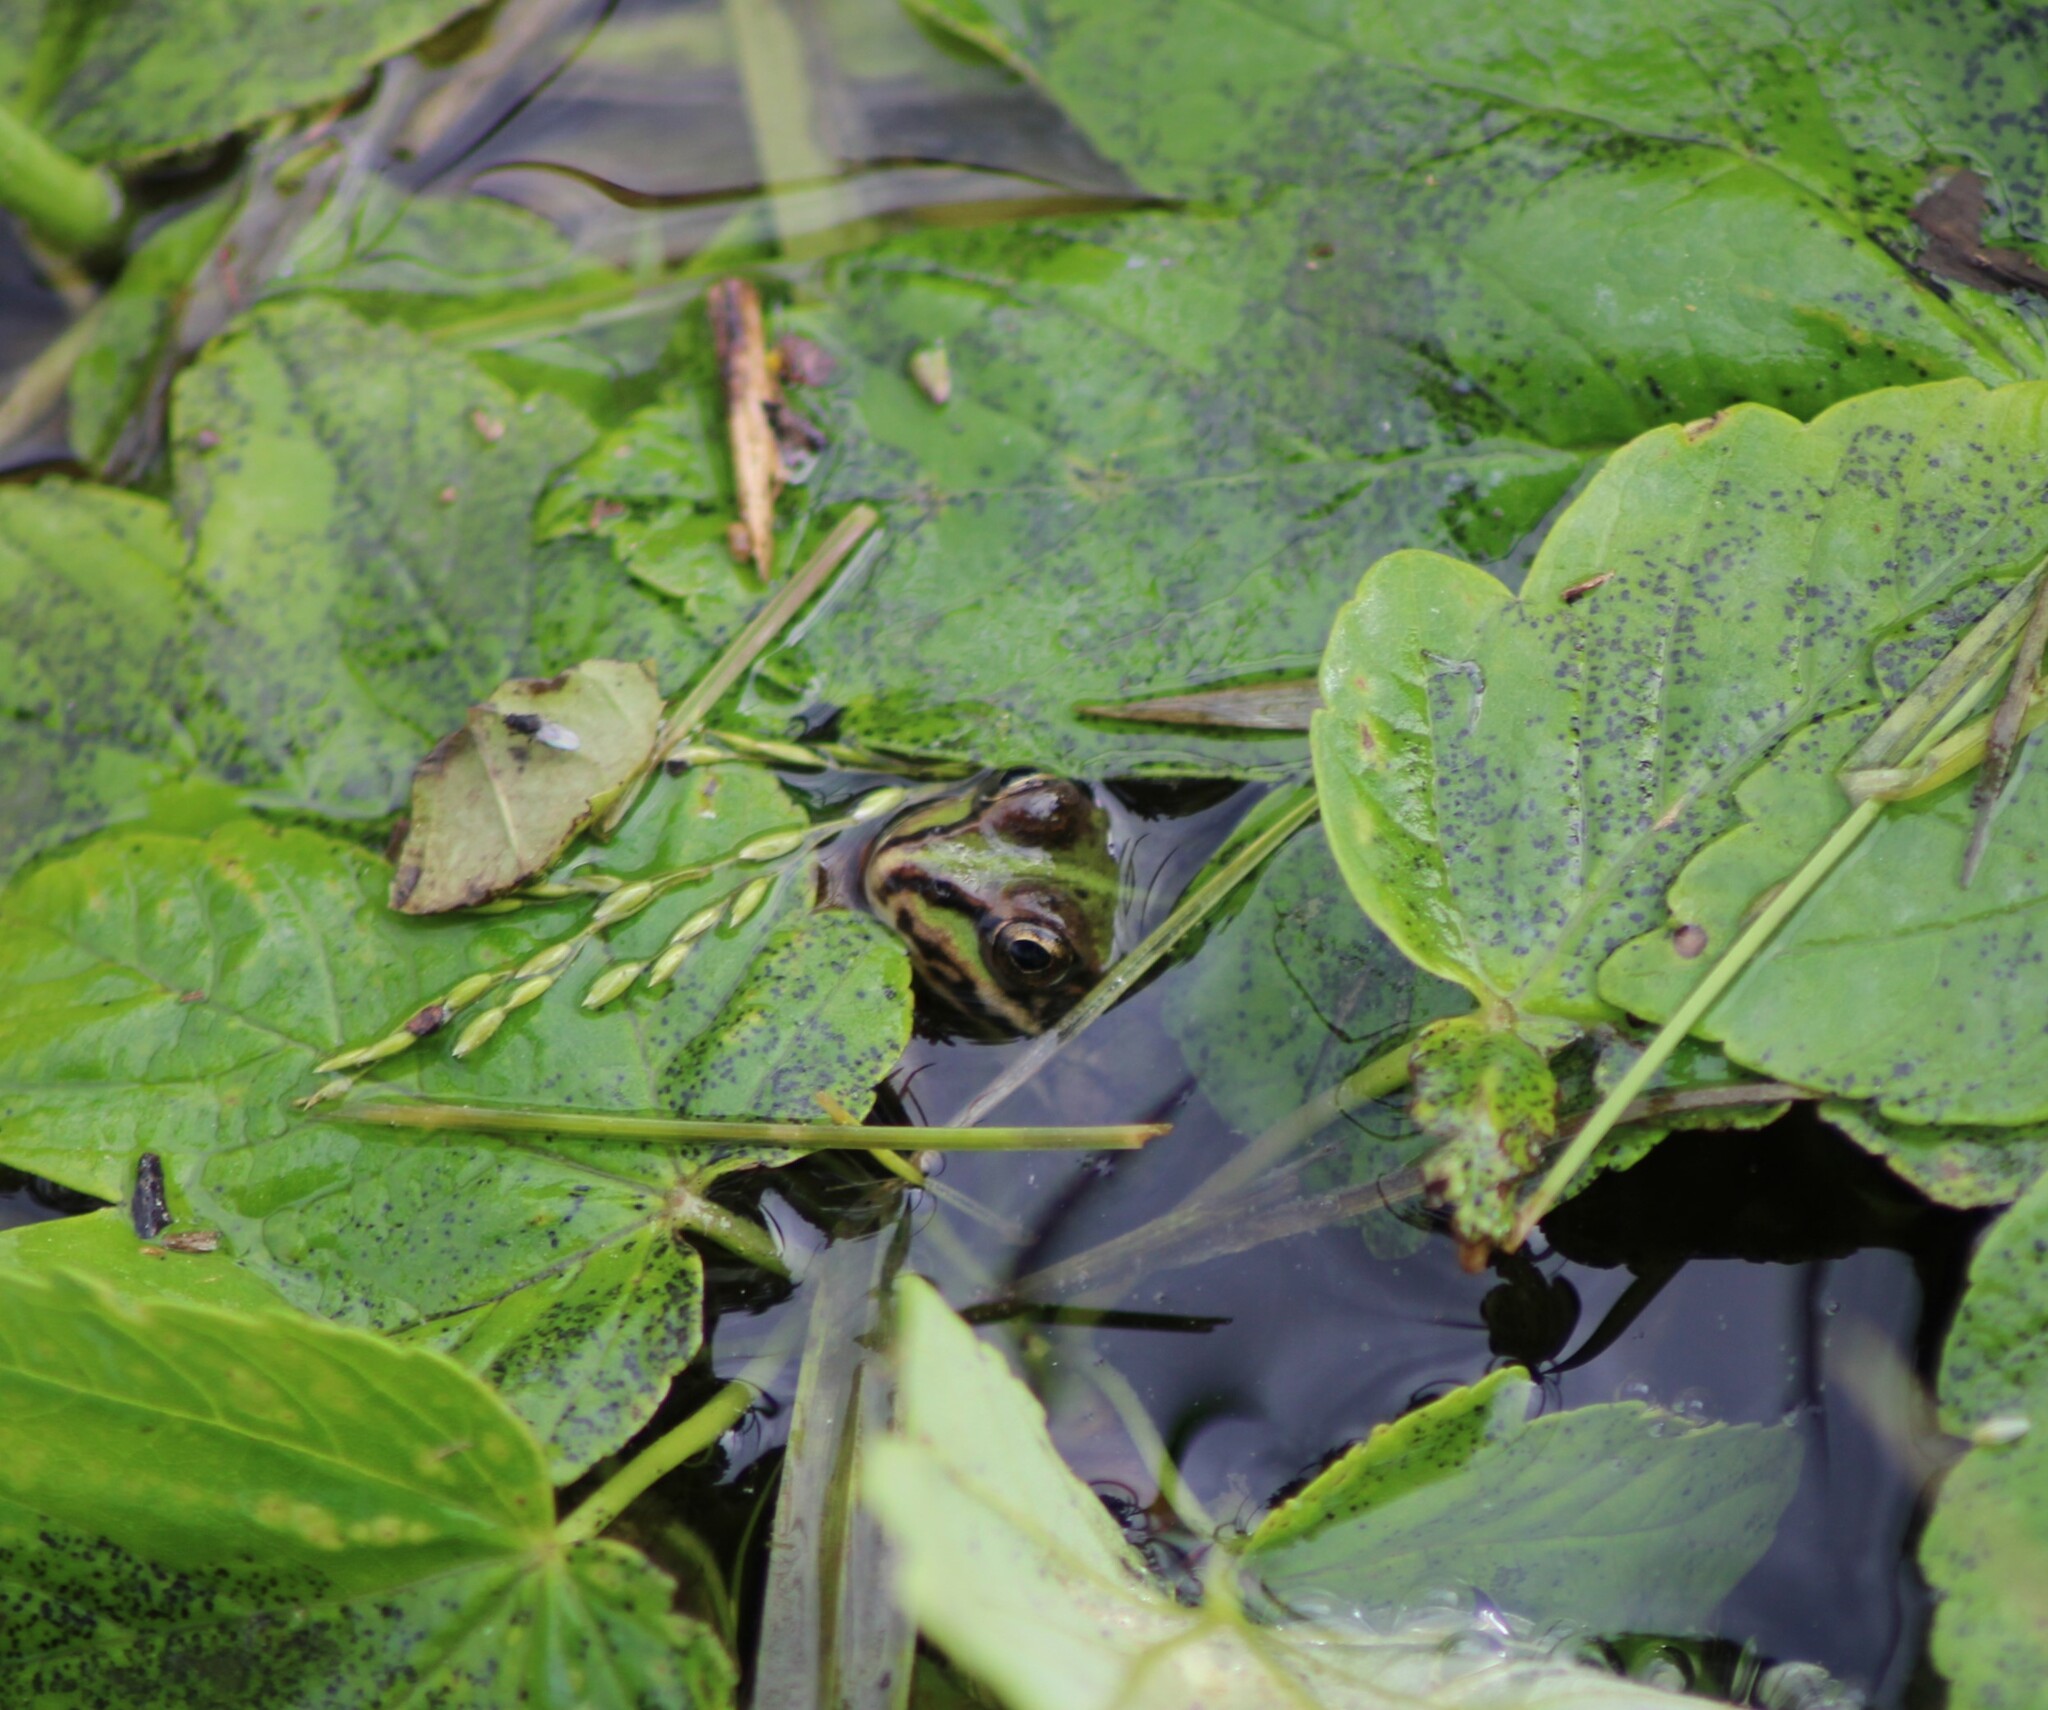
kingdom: Animalia
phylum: Chordata
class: Amphibia
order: Anura
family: Ranidae
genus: Pelophylax
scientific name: Pelophylax
